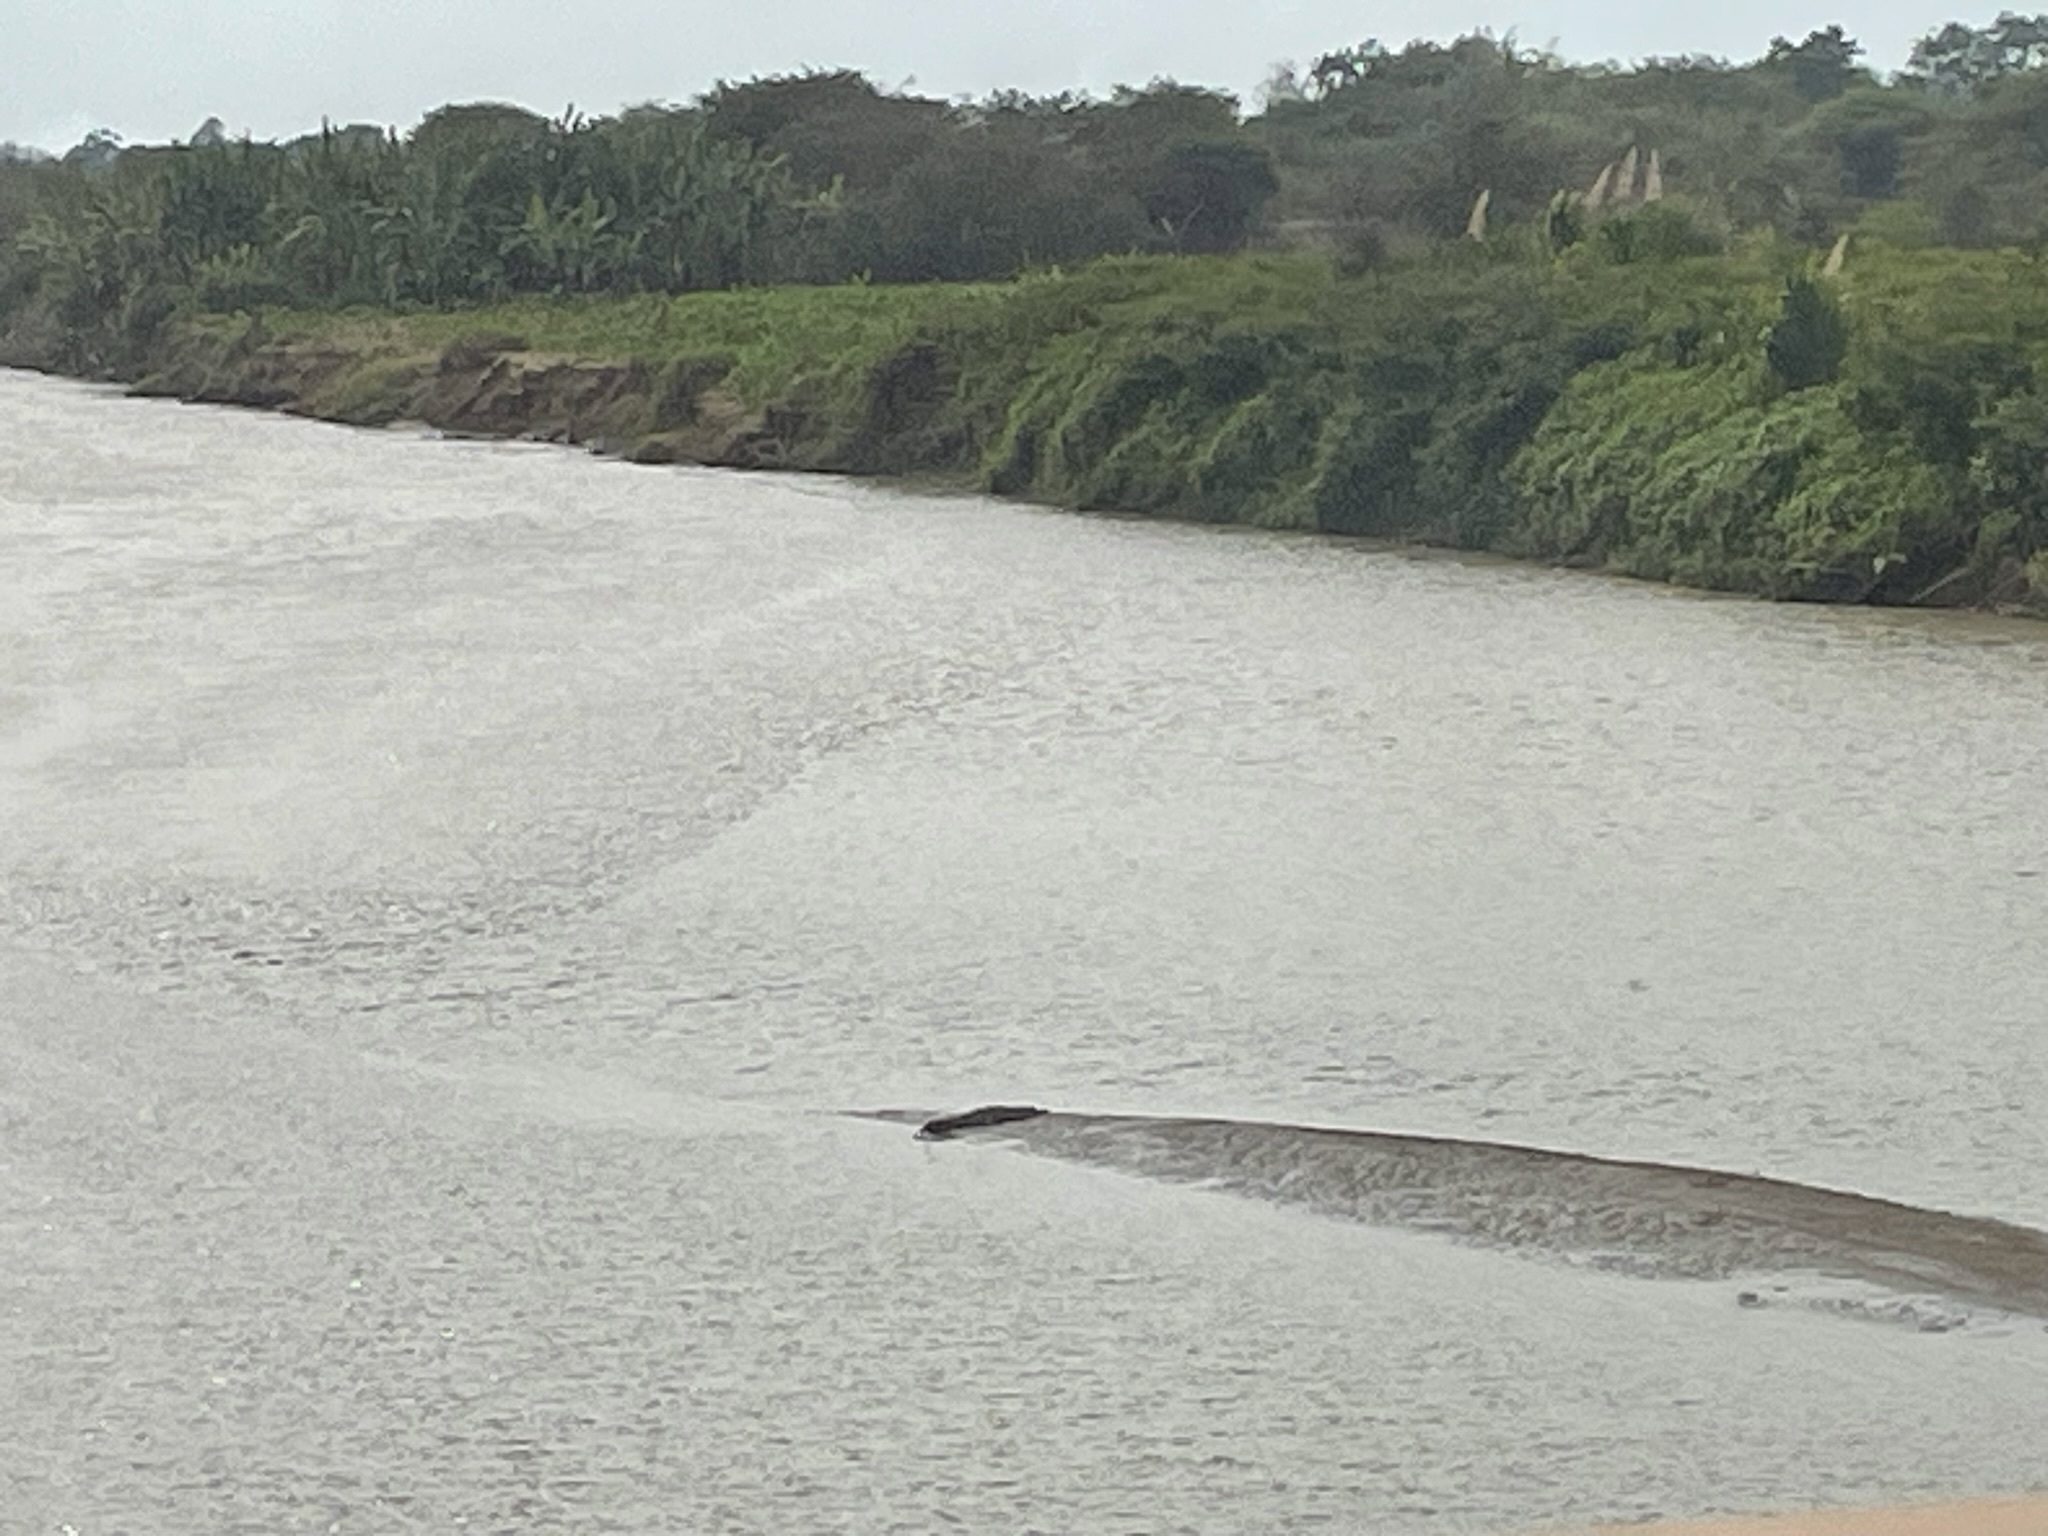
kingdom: Animalia
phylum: Chordata
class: Crocodylia
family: Crocodylidae
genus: Crocodylus
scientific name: Crocodylus acutus
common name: American crocodile
